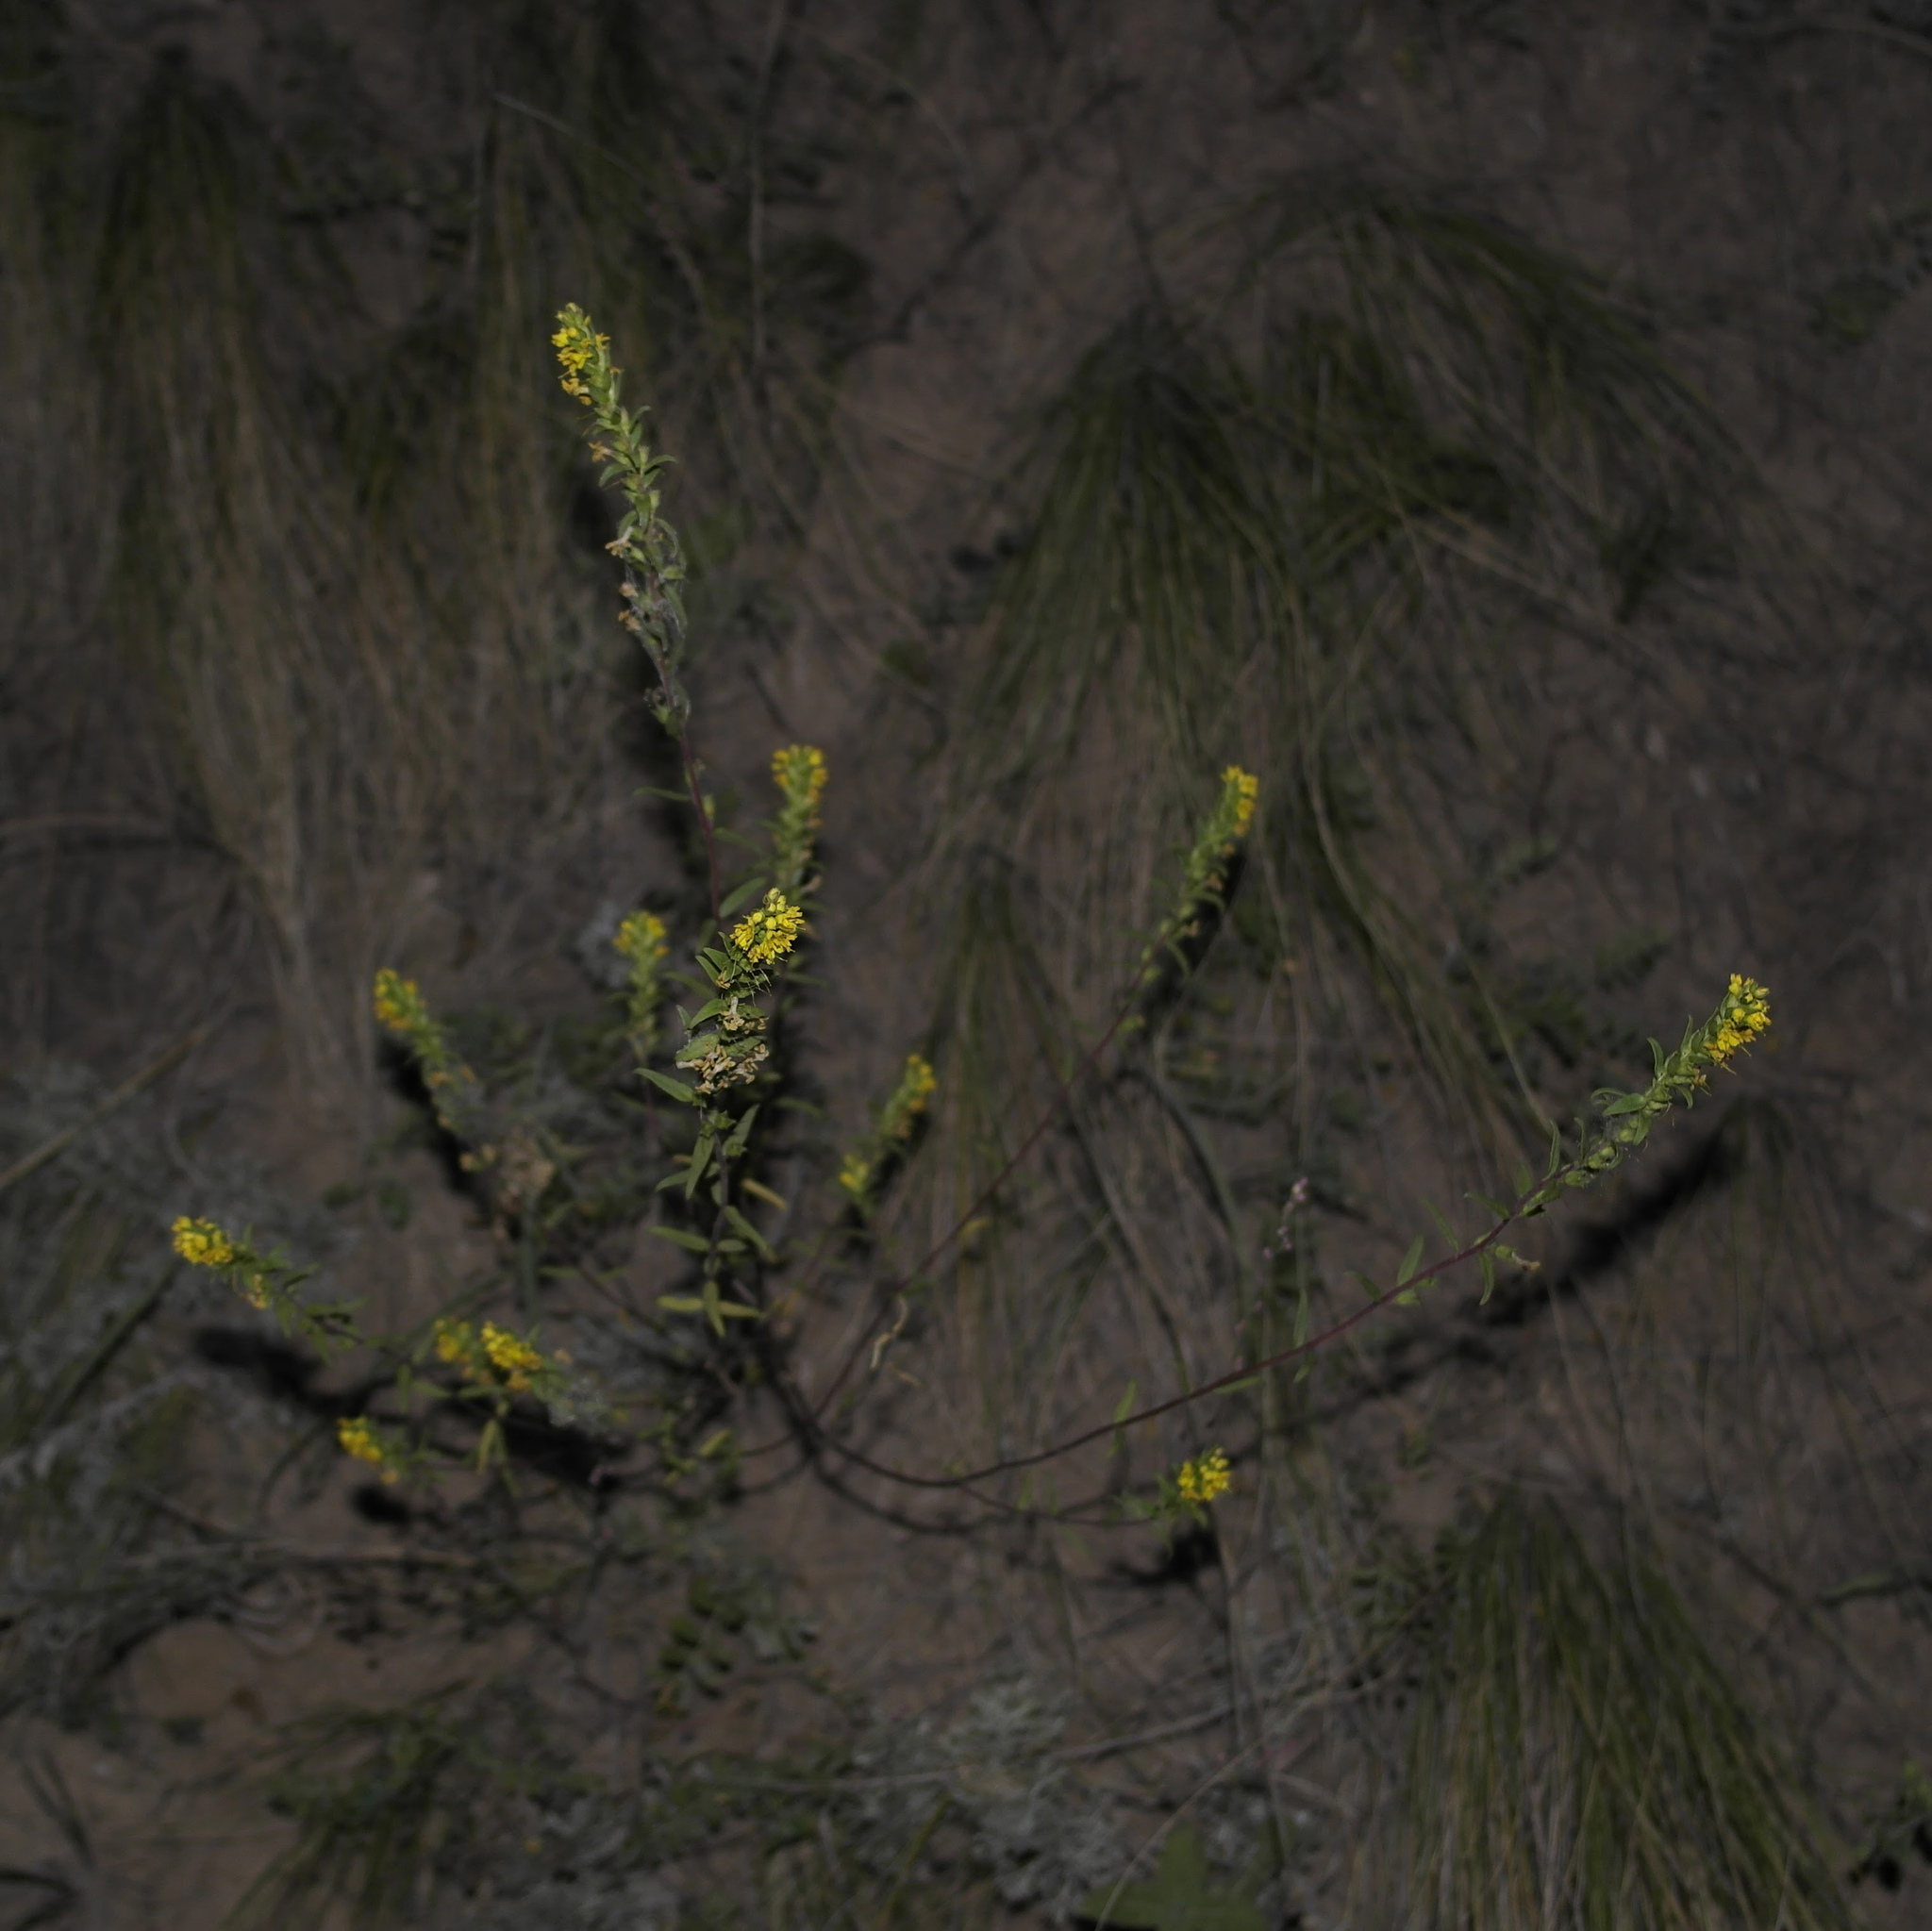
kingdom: Plantae
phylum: Tracheophyta
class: Magnoliopsida
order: Lamiales
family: Orobanchaceae
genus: Odontites
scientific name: Odontites luteus
